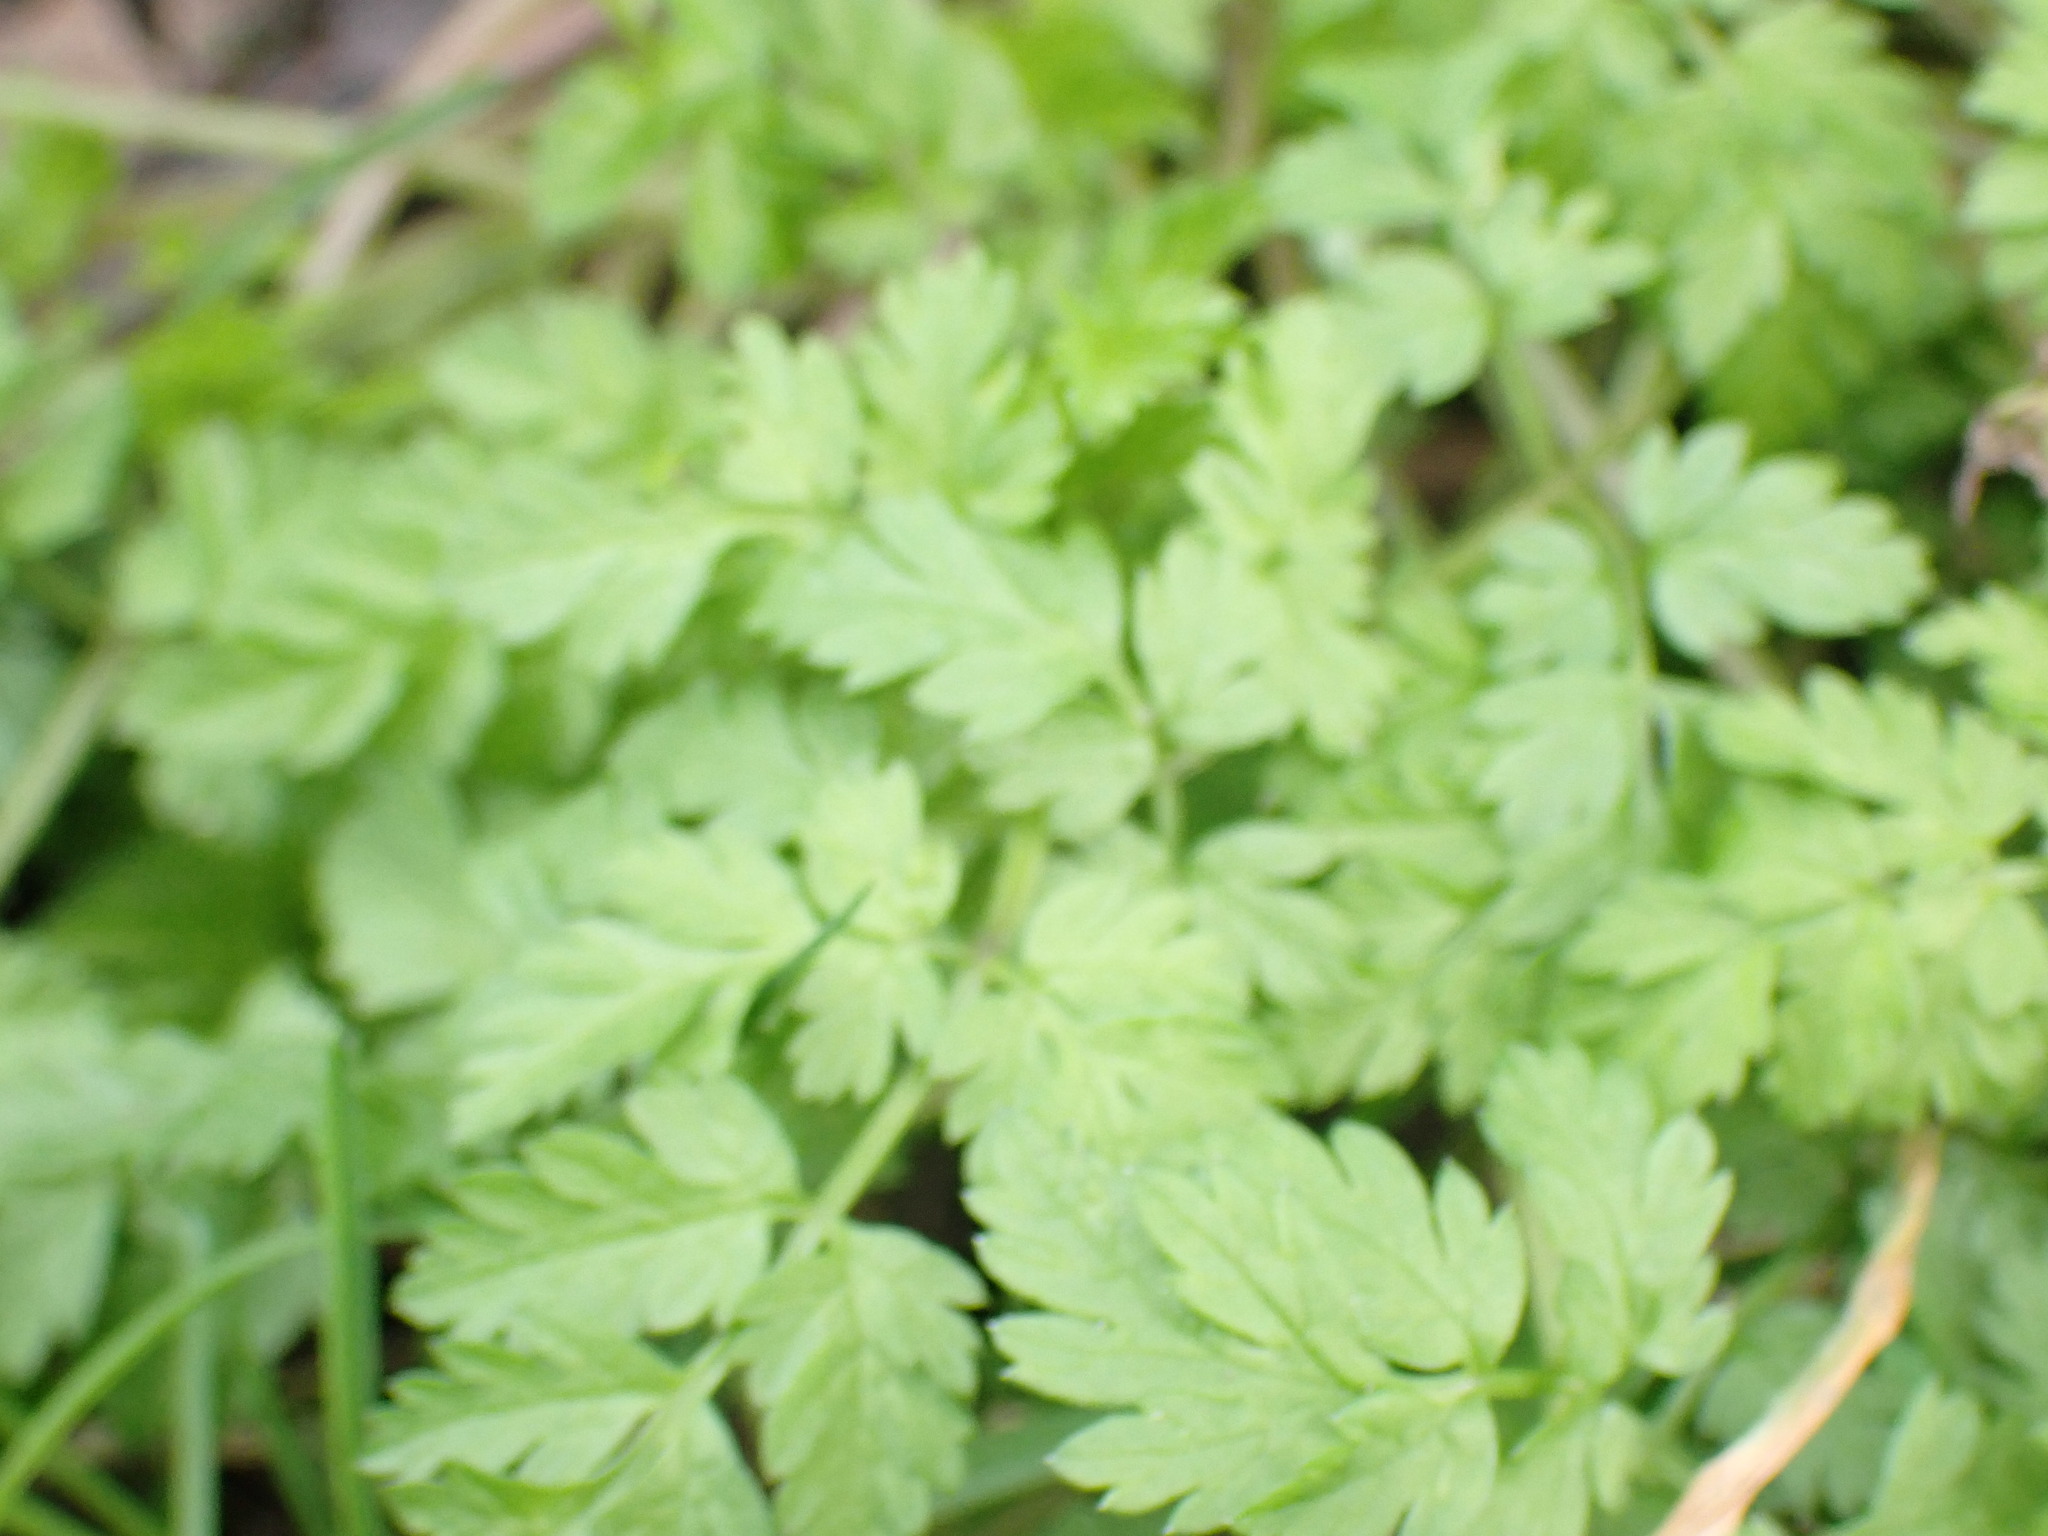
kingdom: Plantae
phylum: Tracheophyta
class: Magnoliopsida
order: Apiales
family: Apiaceae
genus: Anthriscus
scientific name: Anthriscus sylvestris
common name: Cow parsley
